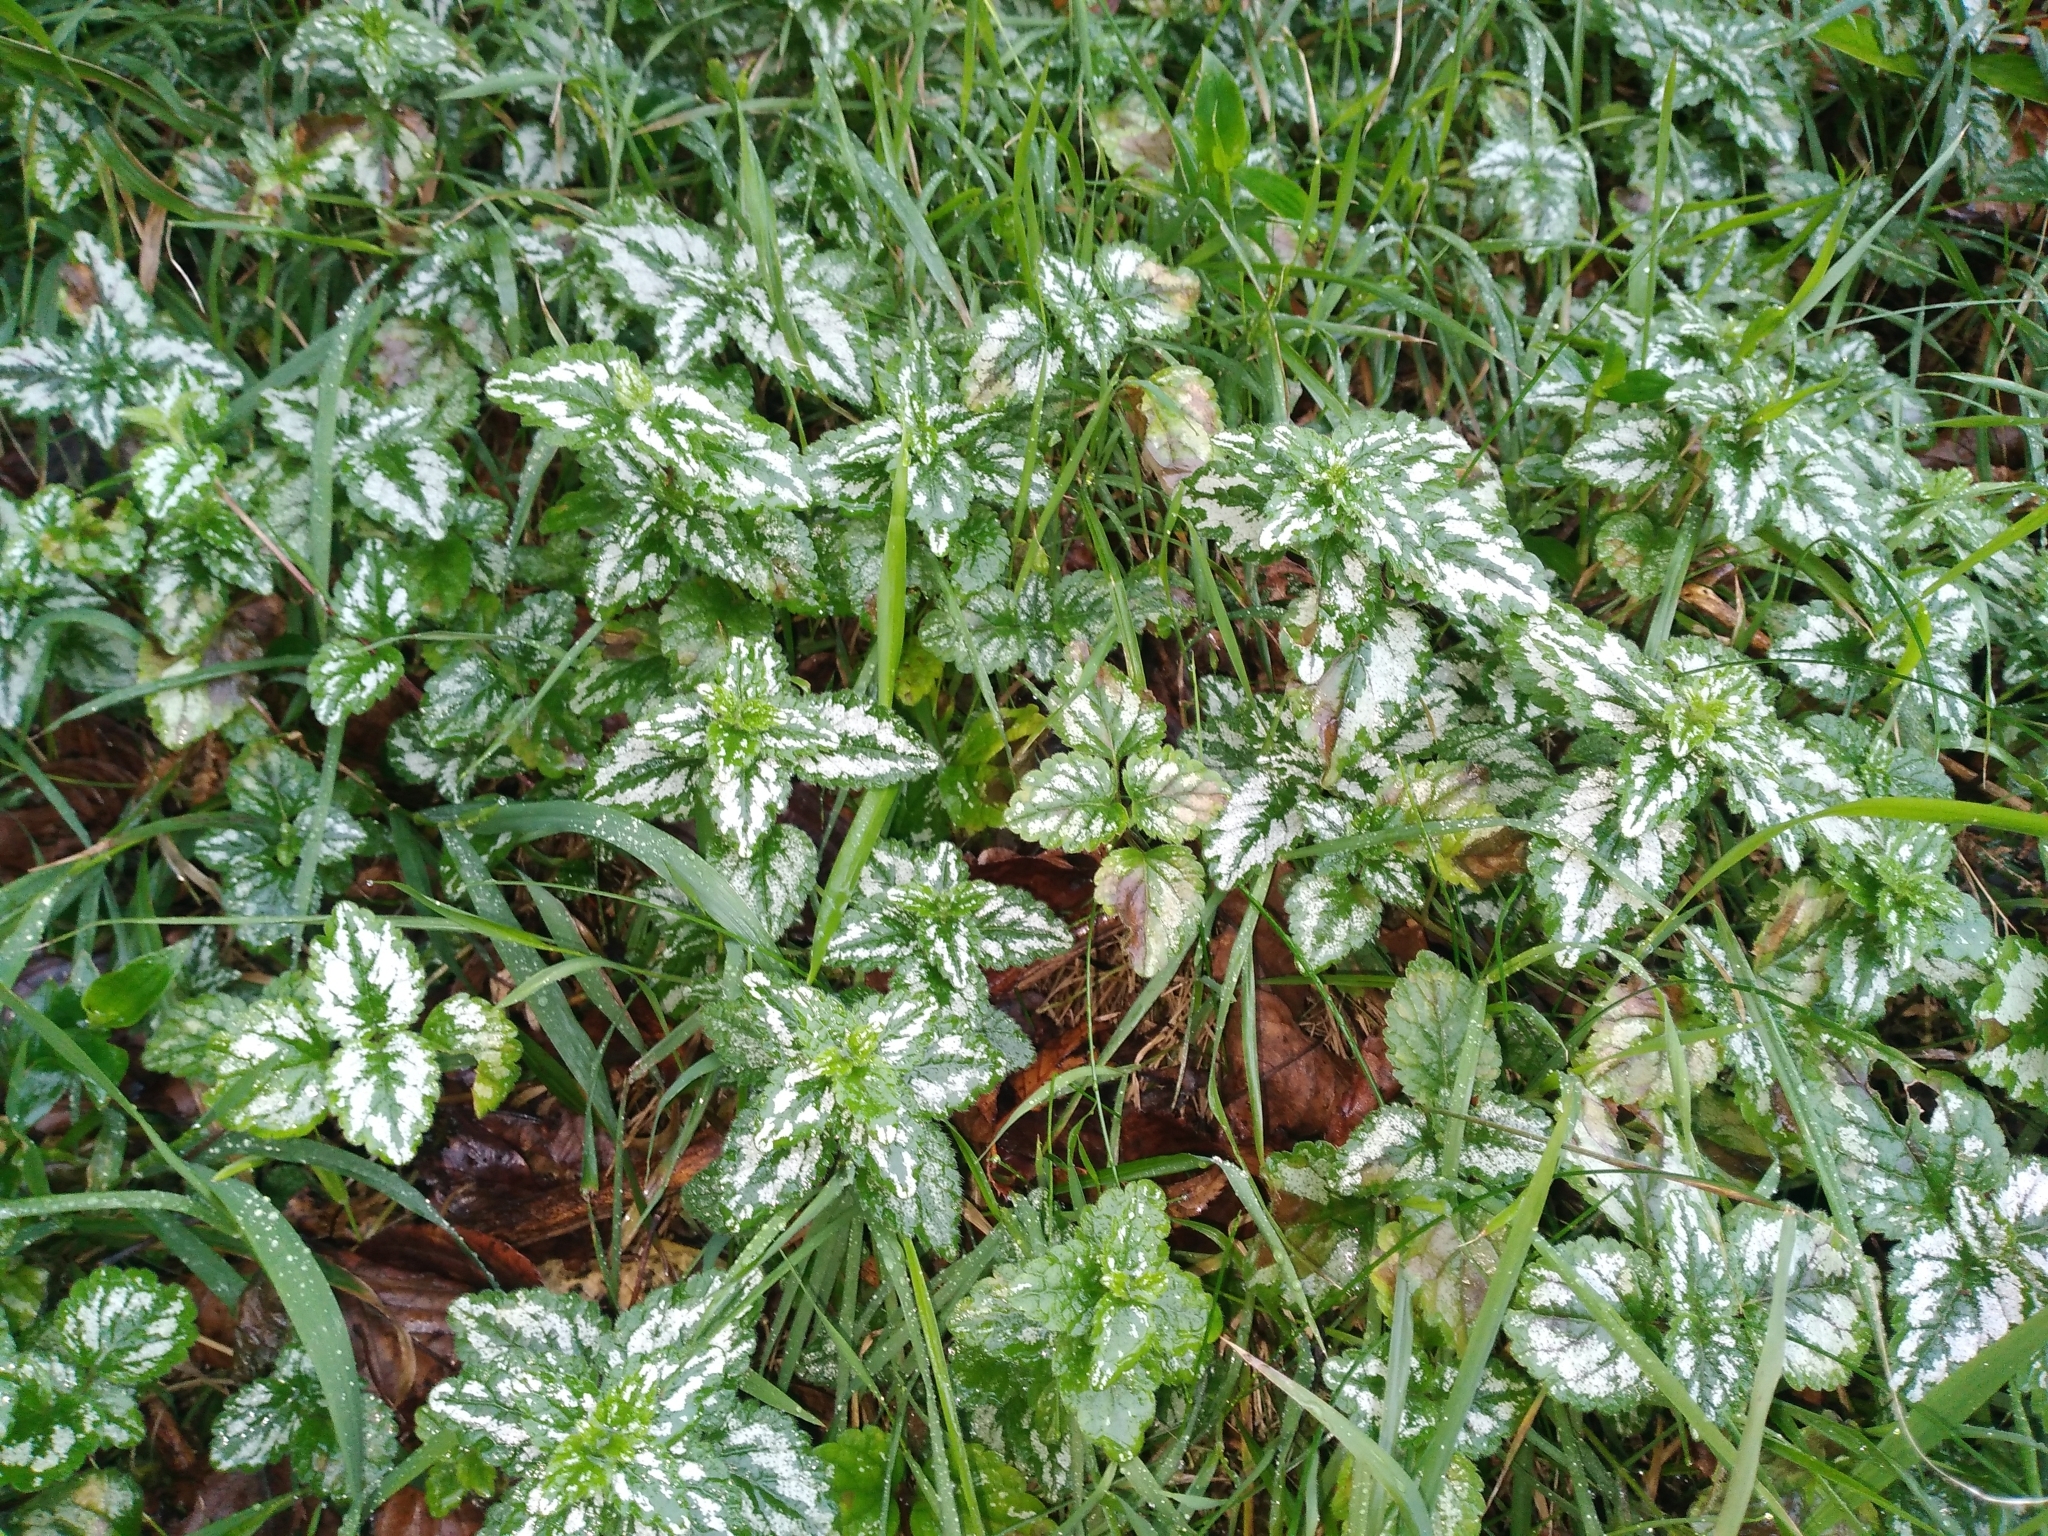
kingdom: Plantae
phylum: Tracheophyta
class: Magnoliopsida
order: Lamiales
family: Lamiaceae
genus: Lamium
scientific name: Lamium galeobdolon
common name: Yellow archangel
